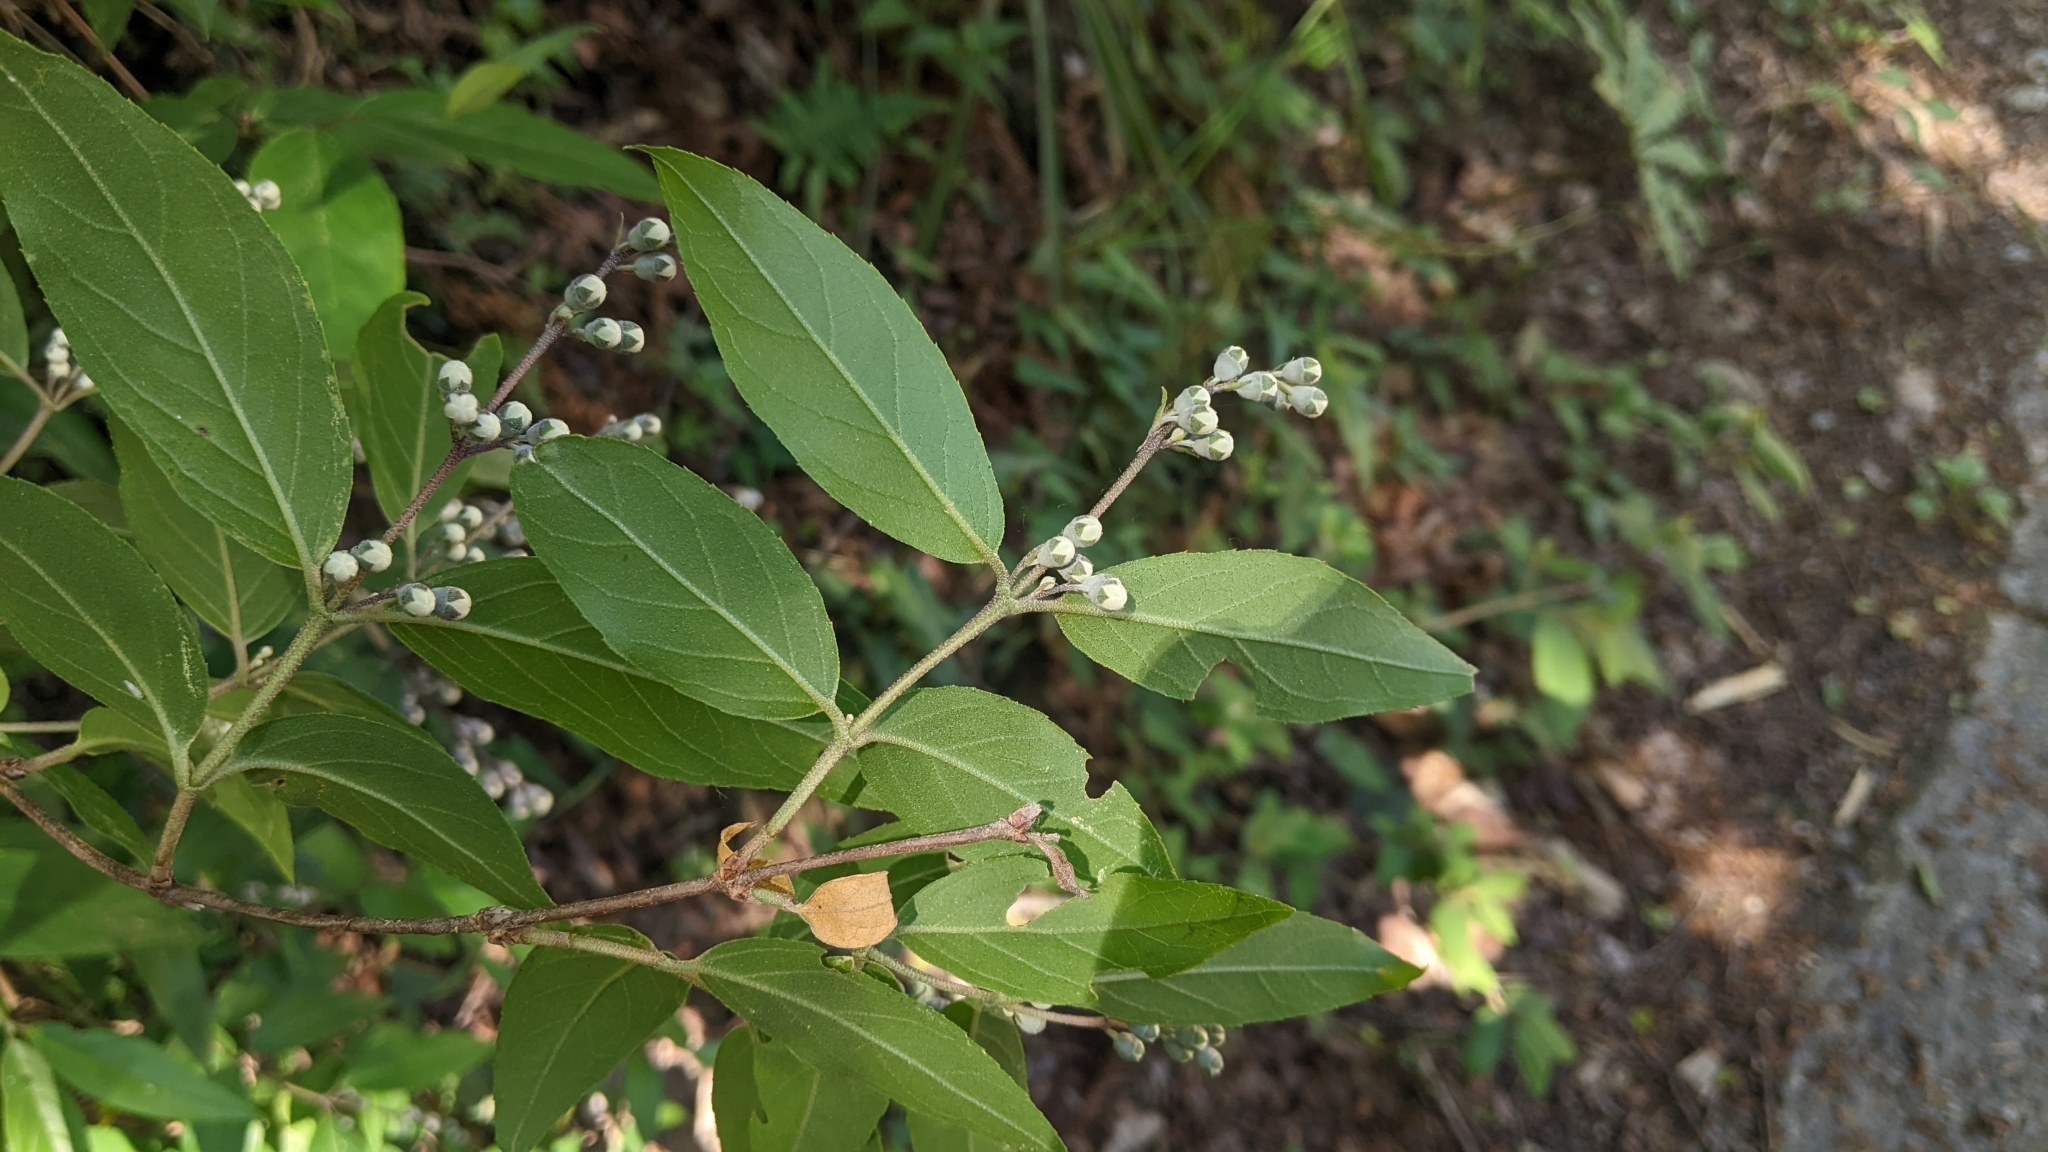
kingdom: Plantae
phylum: Tracheophyta
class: Magnoliopsida
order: Cornales
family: Hydrangeaceae
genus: Deutzia
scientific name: Deutzia pulchra
